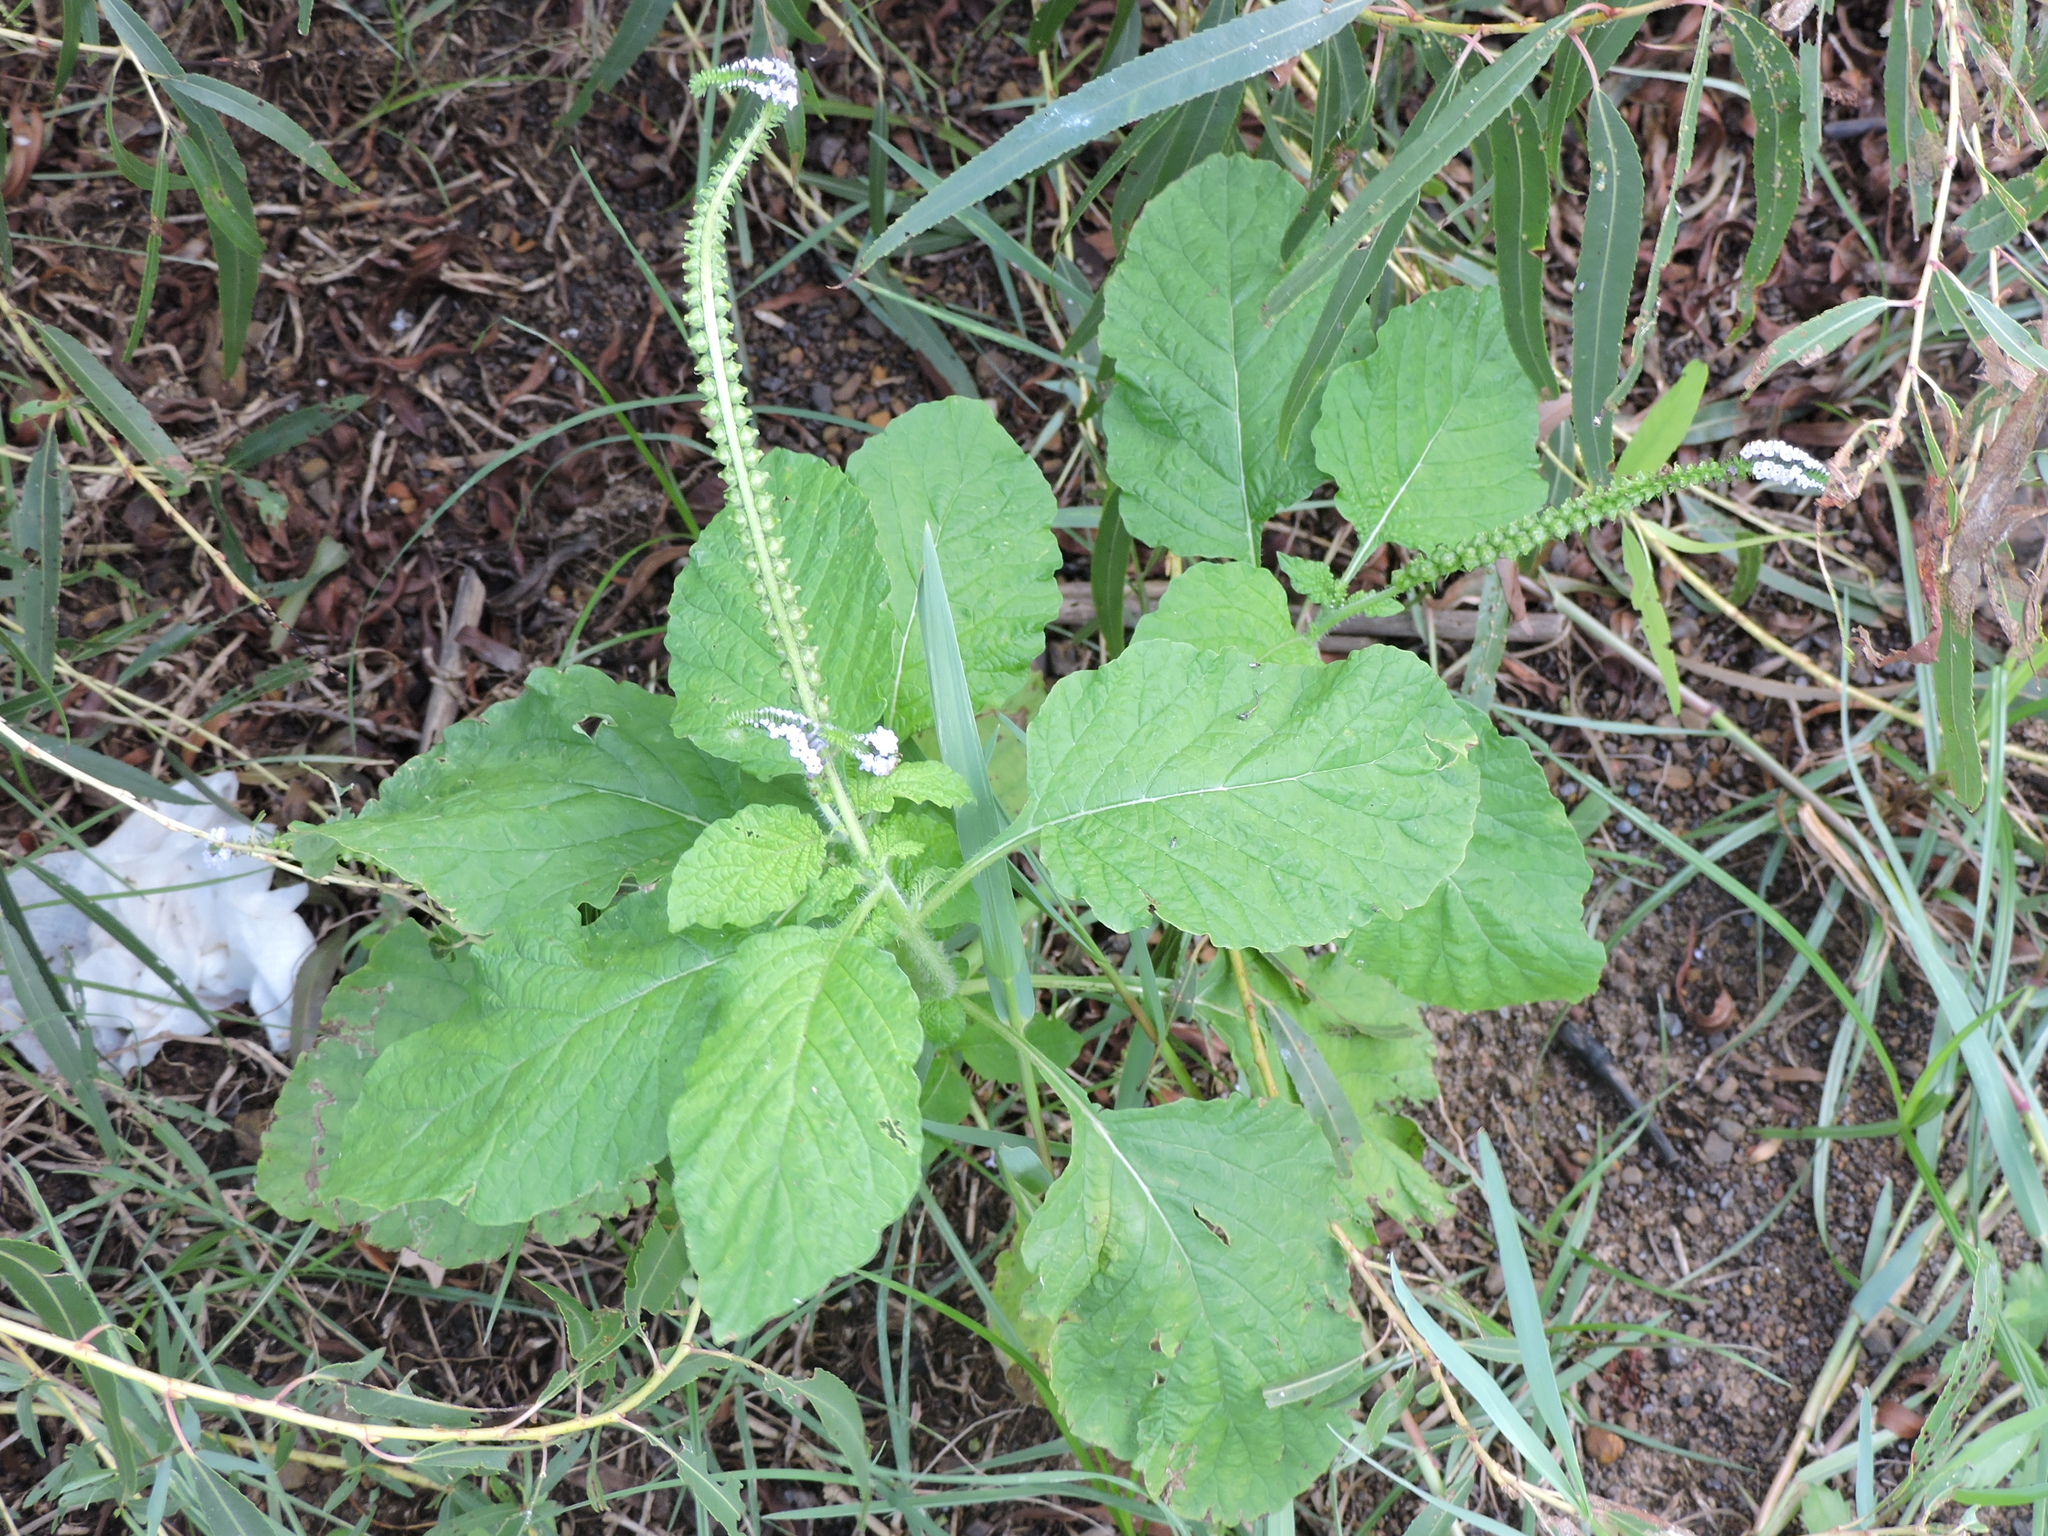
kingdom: Plantae
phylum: Tracheophyta
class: Magnoliopsida
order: Boraginales
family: Heliotropiaceae
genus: Heliotropium
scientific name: Heliotropium indicum
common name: Indian heliotrope
